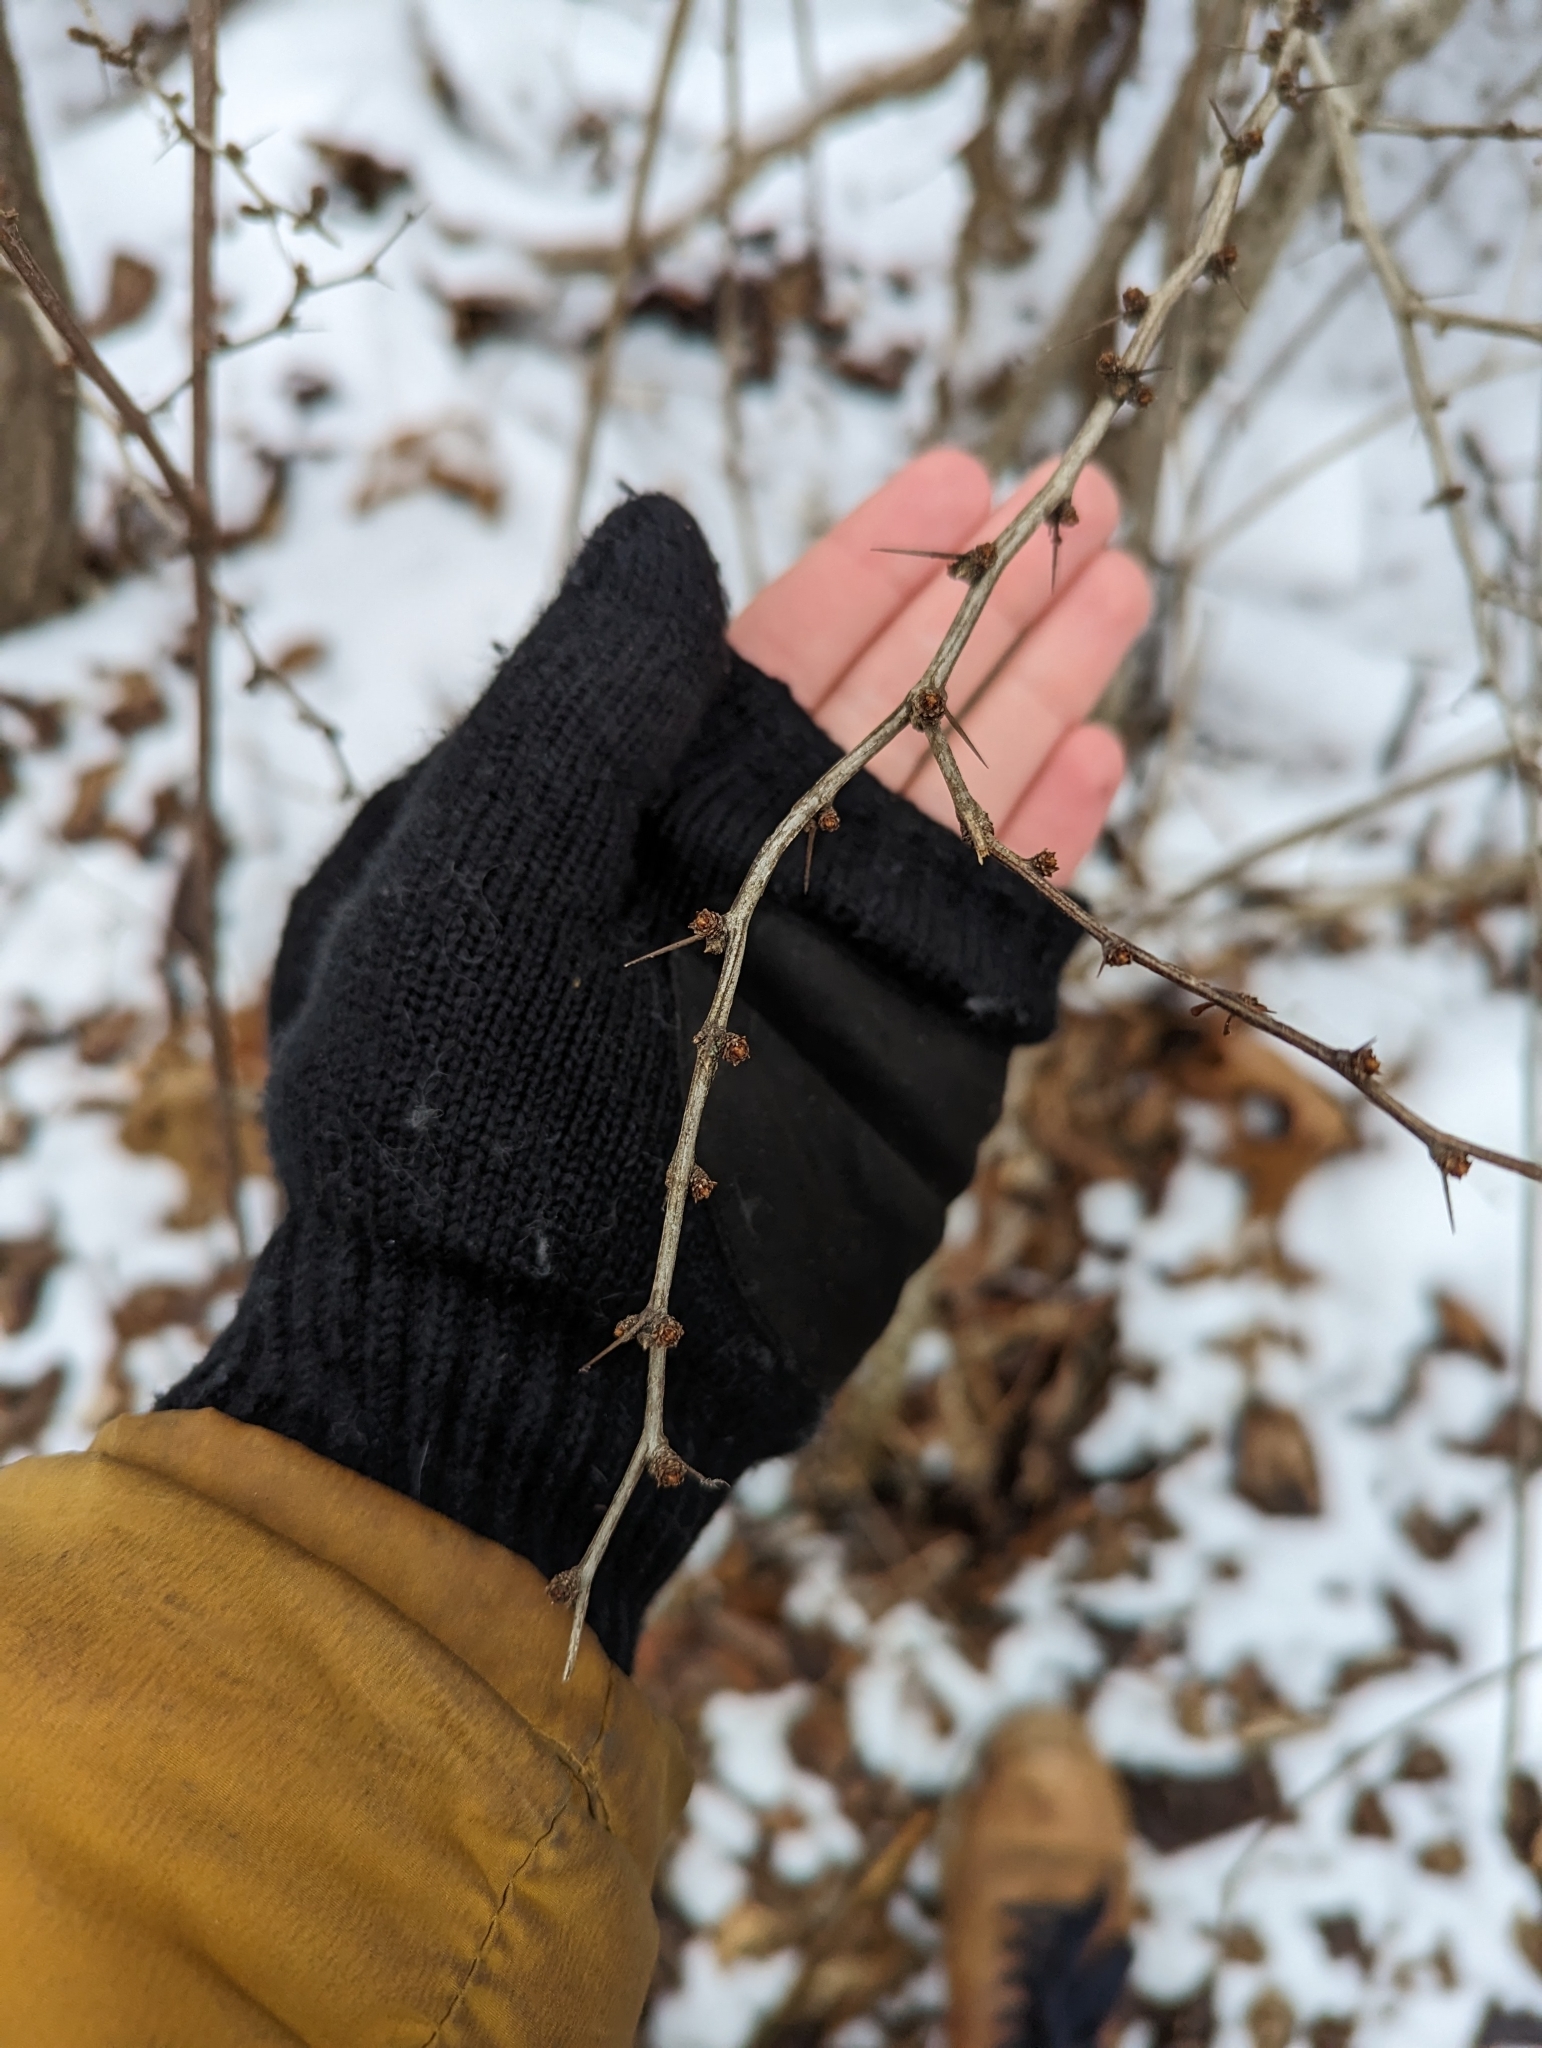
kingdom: Plantae
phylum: Tracheophyta
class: Magnoliopsida
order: Ranunculales
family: Berberidaceae
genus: Berberis
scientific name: Berberis thunbergii
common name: Japanese barberry
